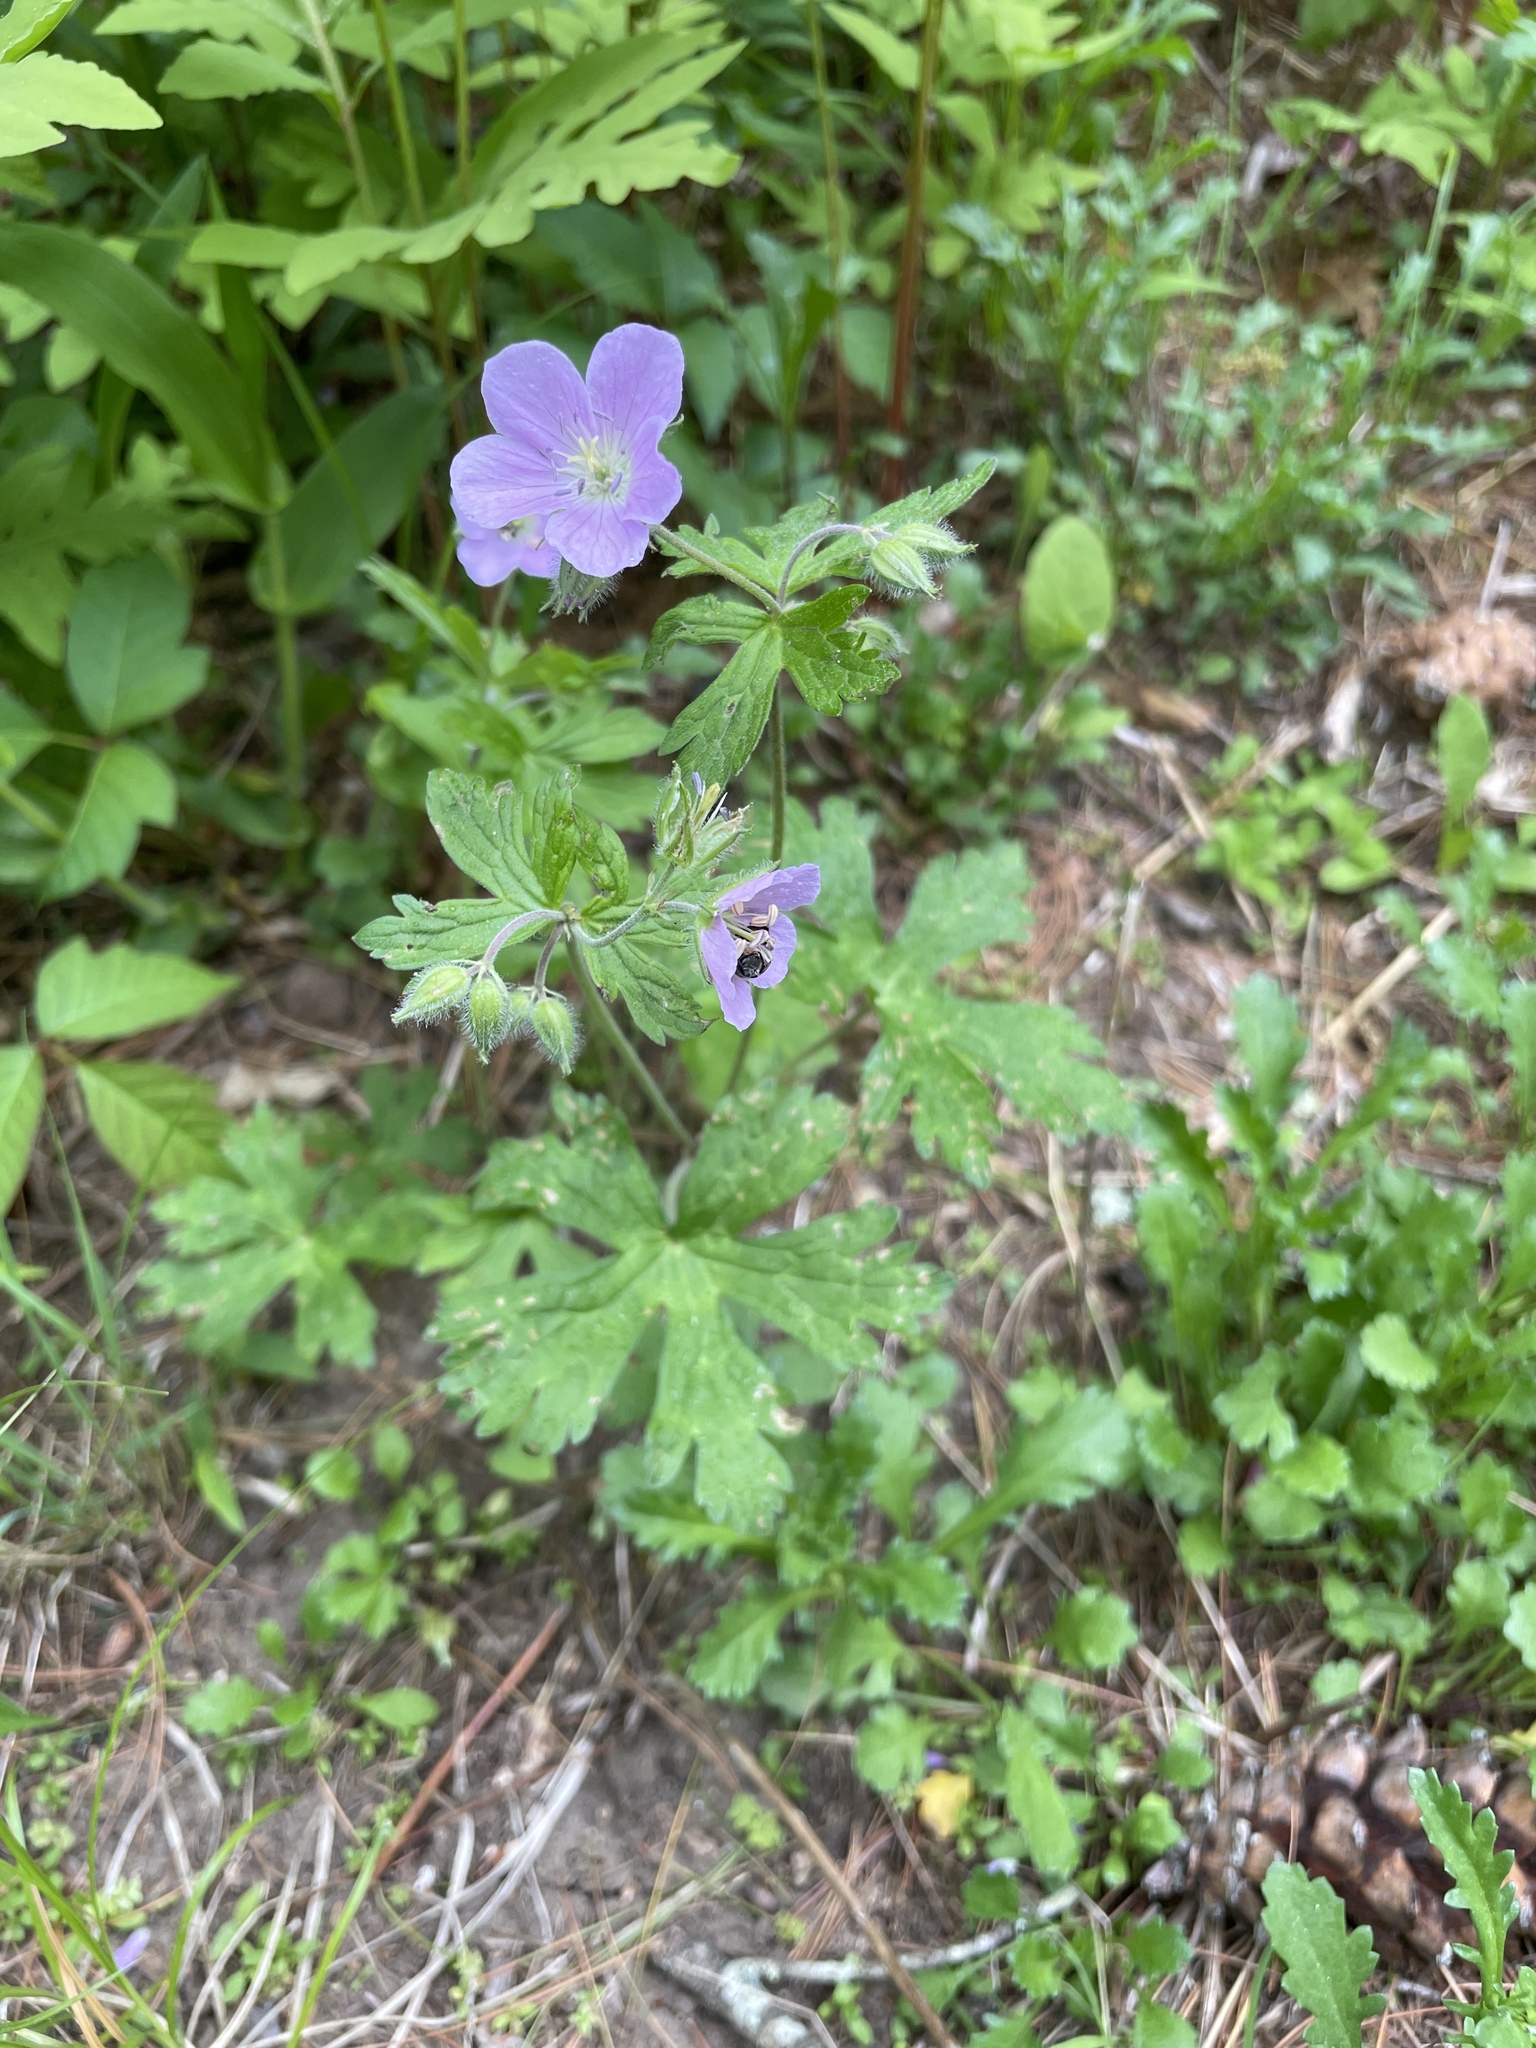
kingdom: Plantae
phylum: Tracheophyta
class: Magnoliopsida
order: Geraniales
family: Geraniaceae
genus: Geranium
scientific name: Geranium maculatum
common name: Spotted geranium
